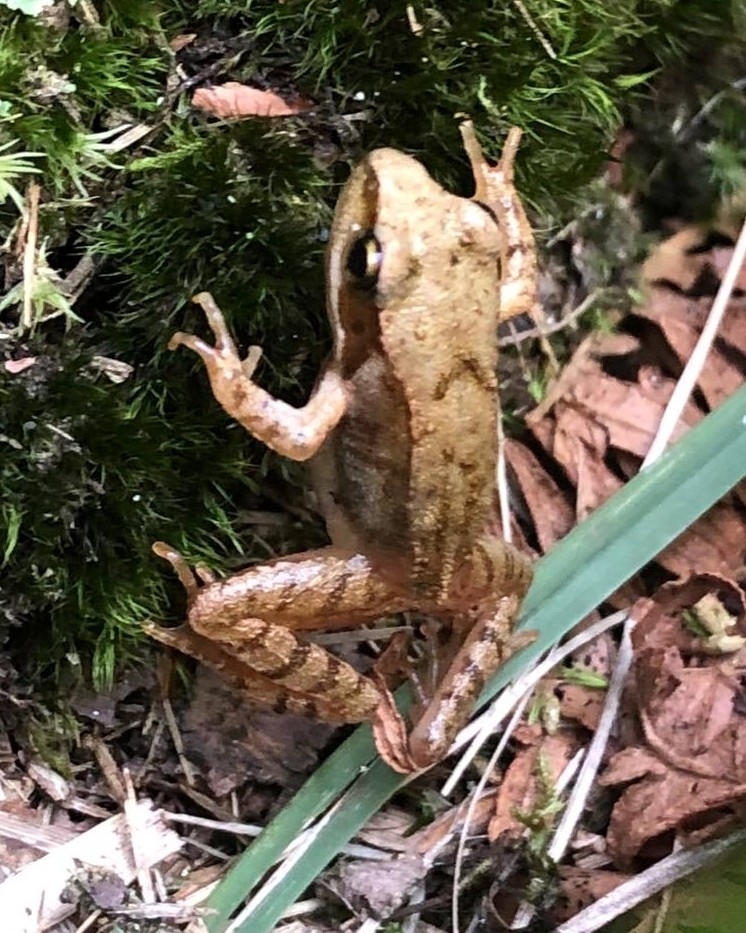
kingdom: Animalia
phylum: Chordata
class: Amphibia
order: Anura
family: Ranidae
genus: Rana
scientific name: Rana temporaria
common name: Common frog
